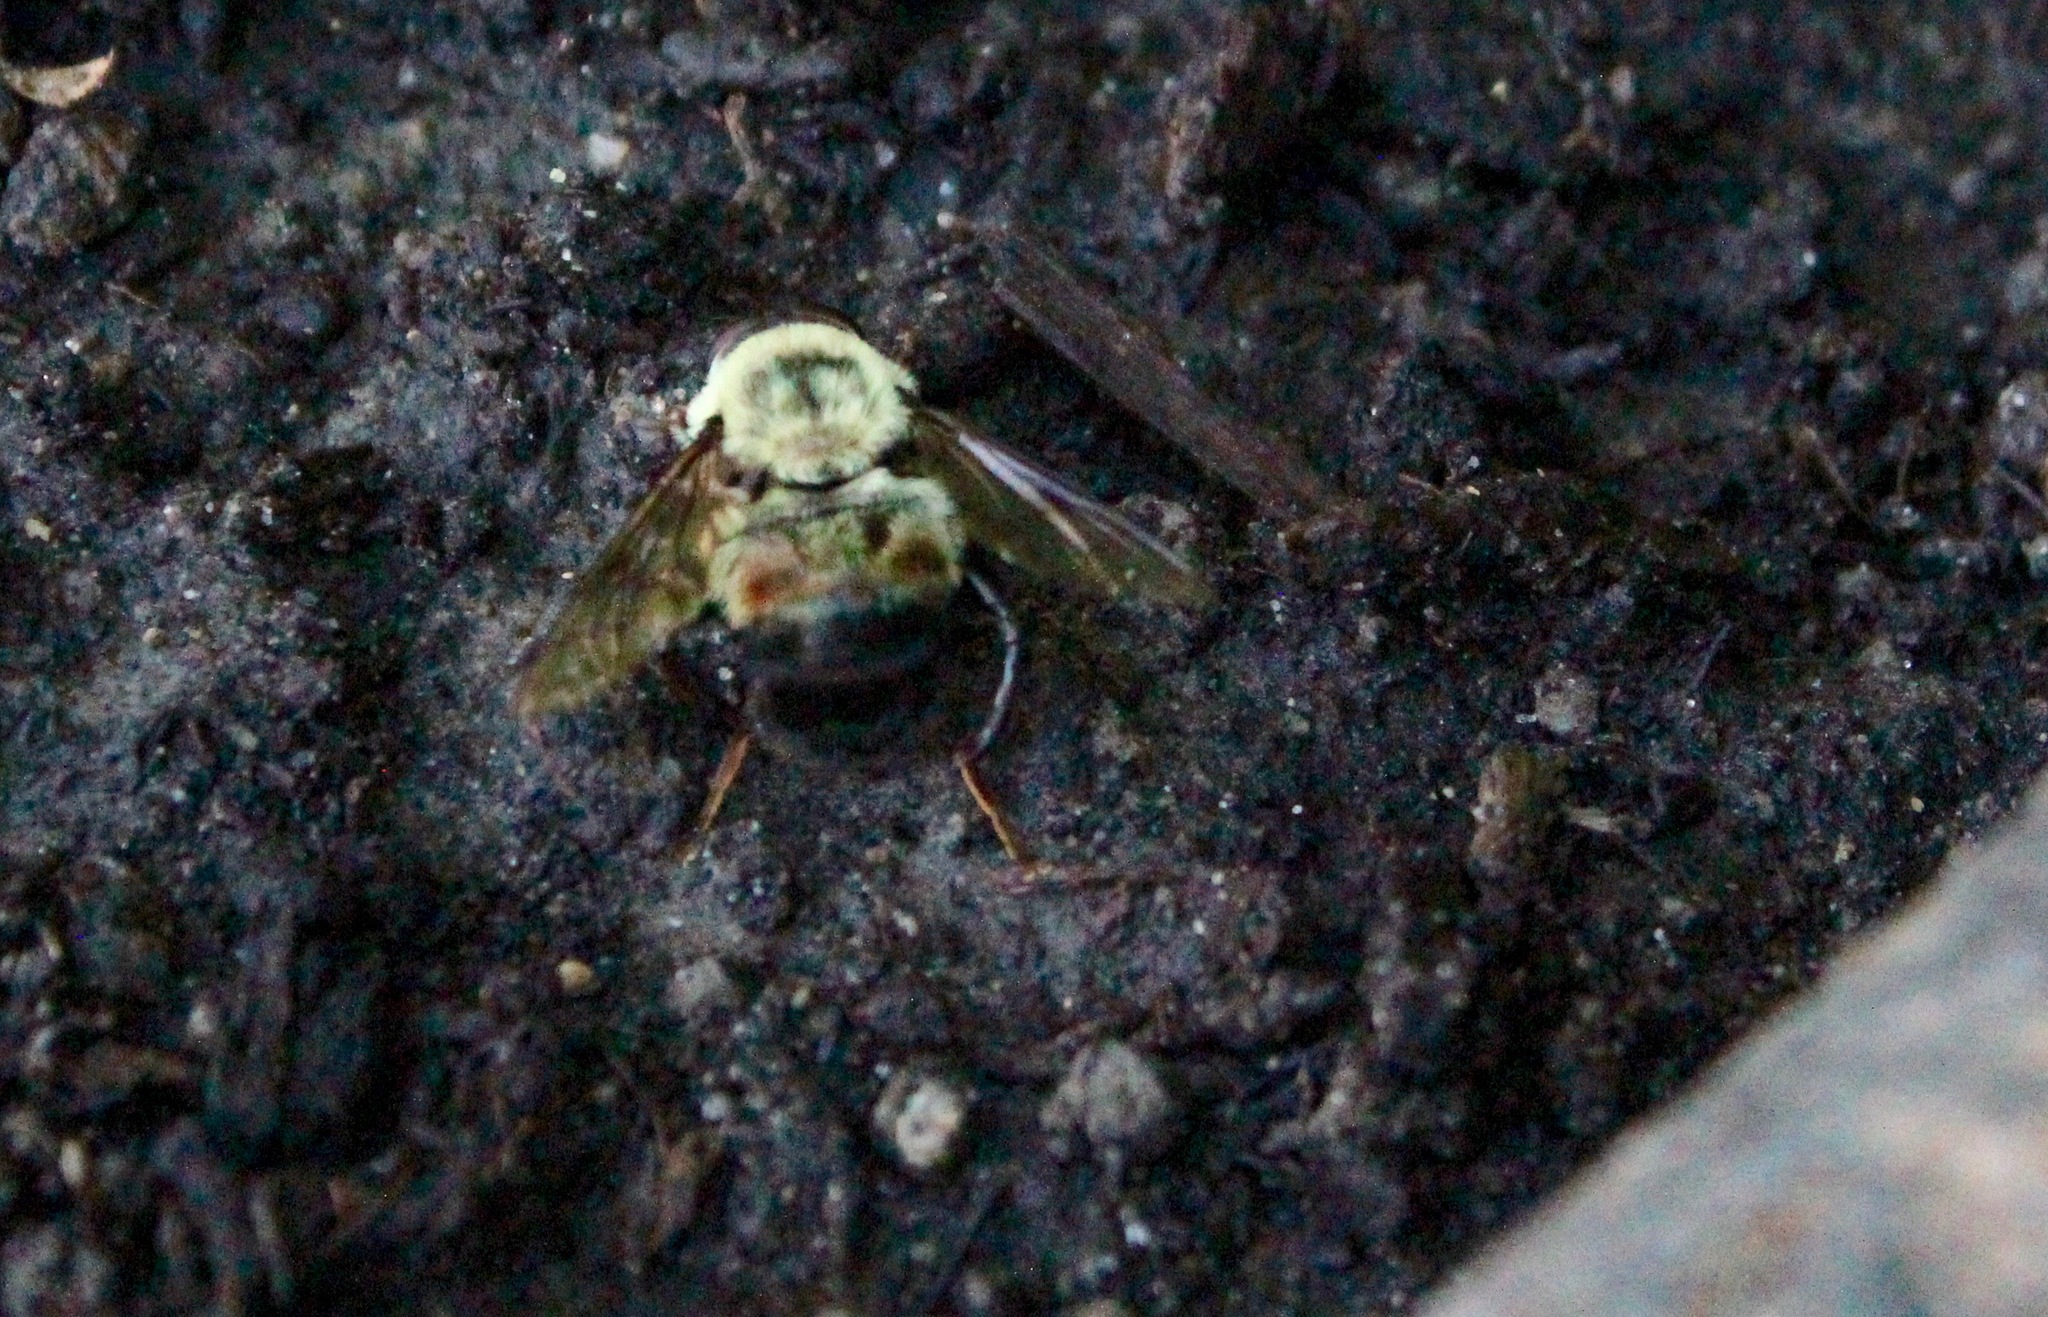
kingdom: Animalia
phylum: Arthropoda
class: Insecta
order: Diptera
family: Syrphidae
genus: Imatisma
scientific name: Imatisma posticata
